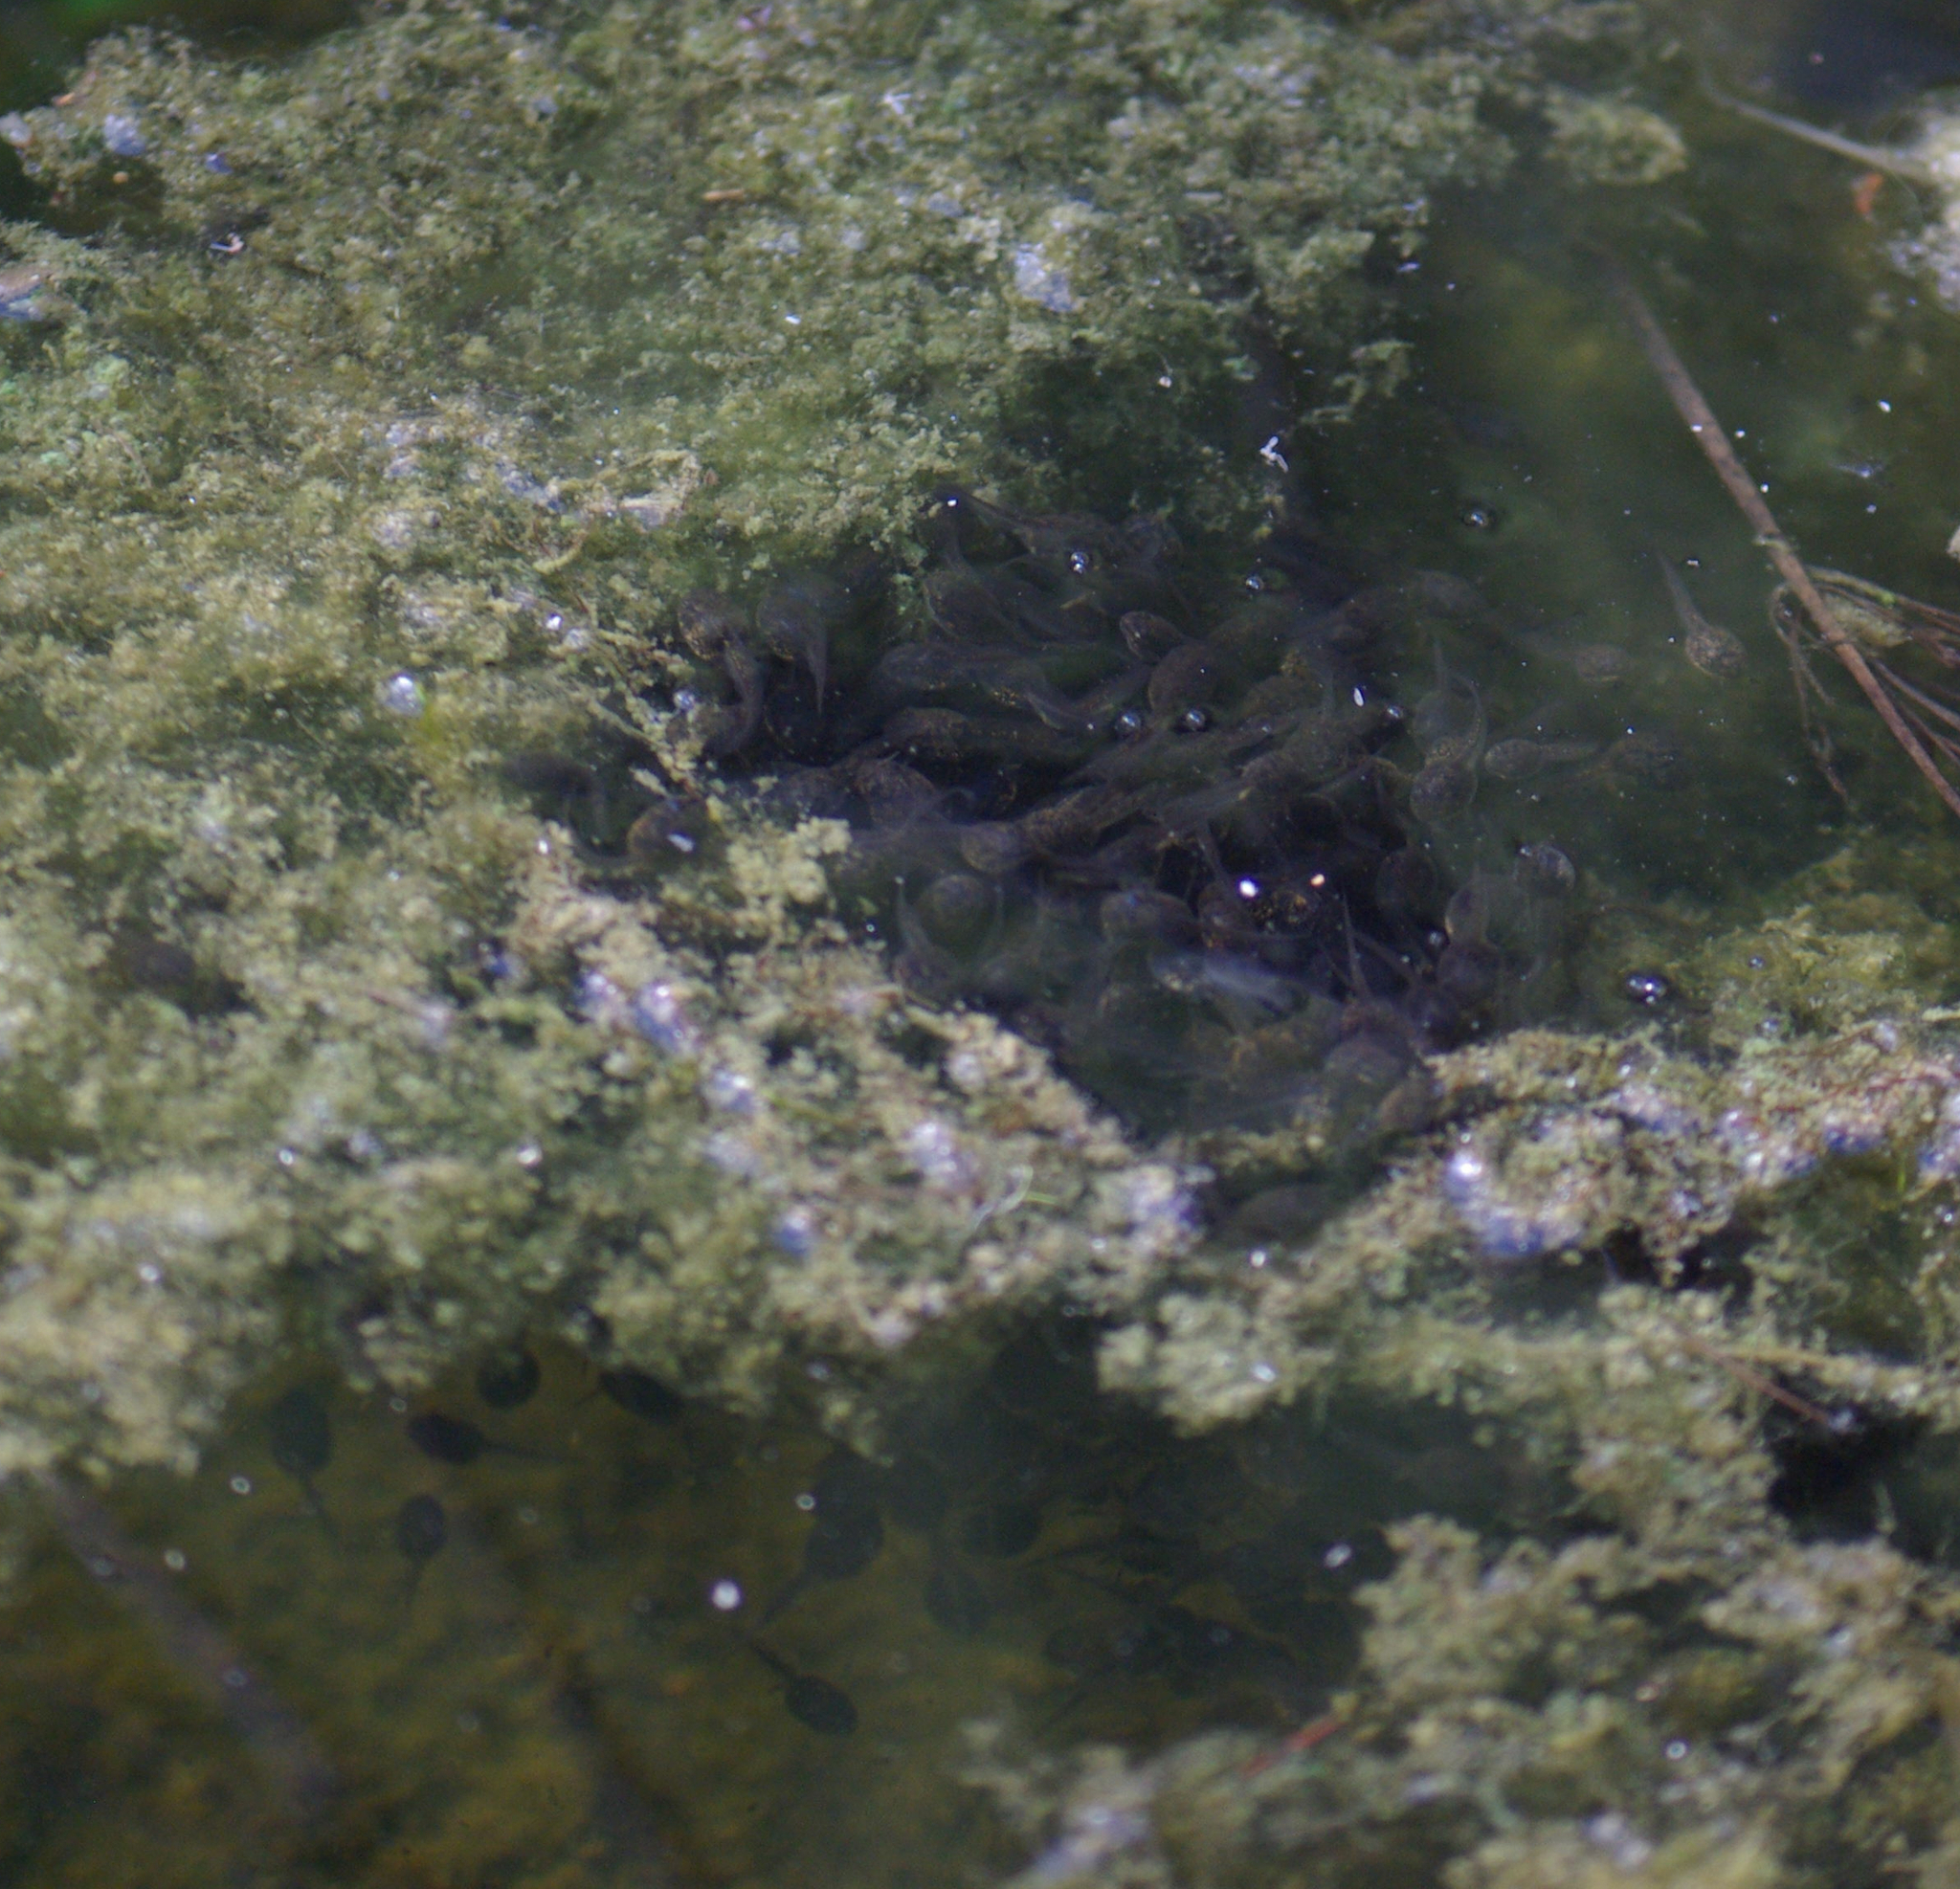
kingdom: Animalia
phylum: Chordata
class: Amphibia
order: Anura
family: Ranidae
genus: Lithobates
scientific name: Lithobates sylvaticus
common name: Wood frog
